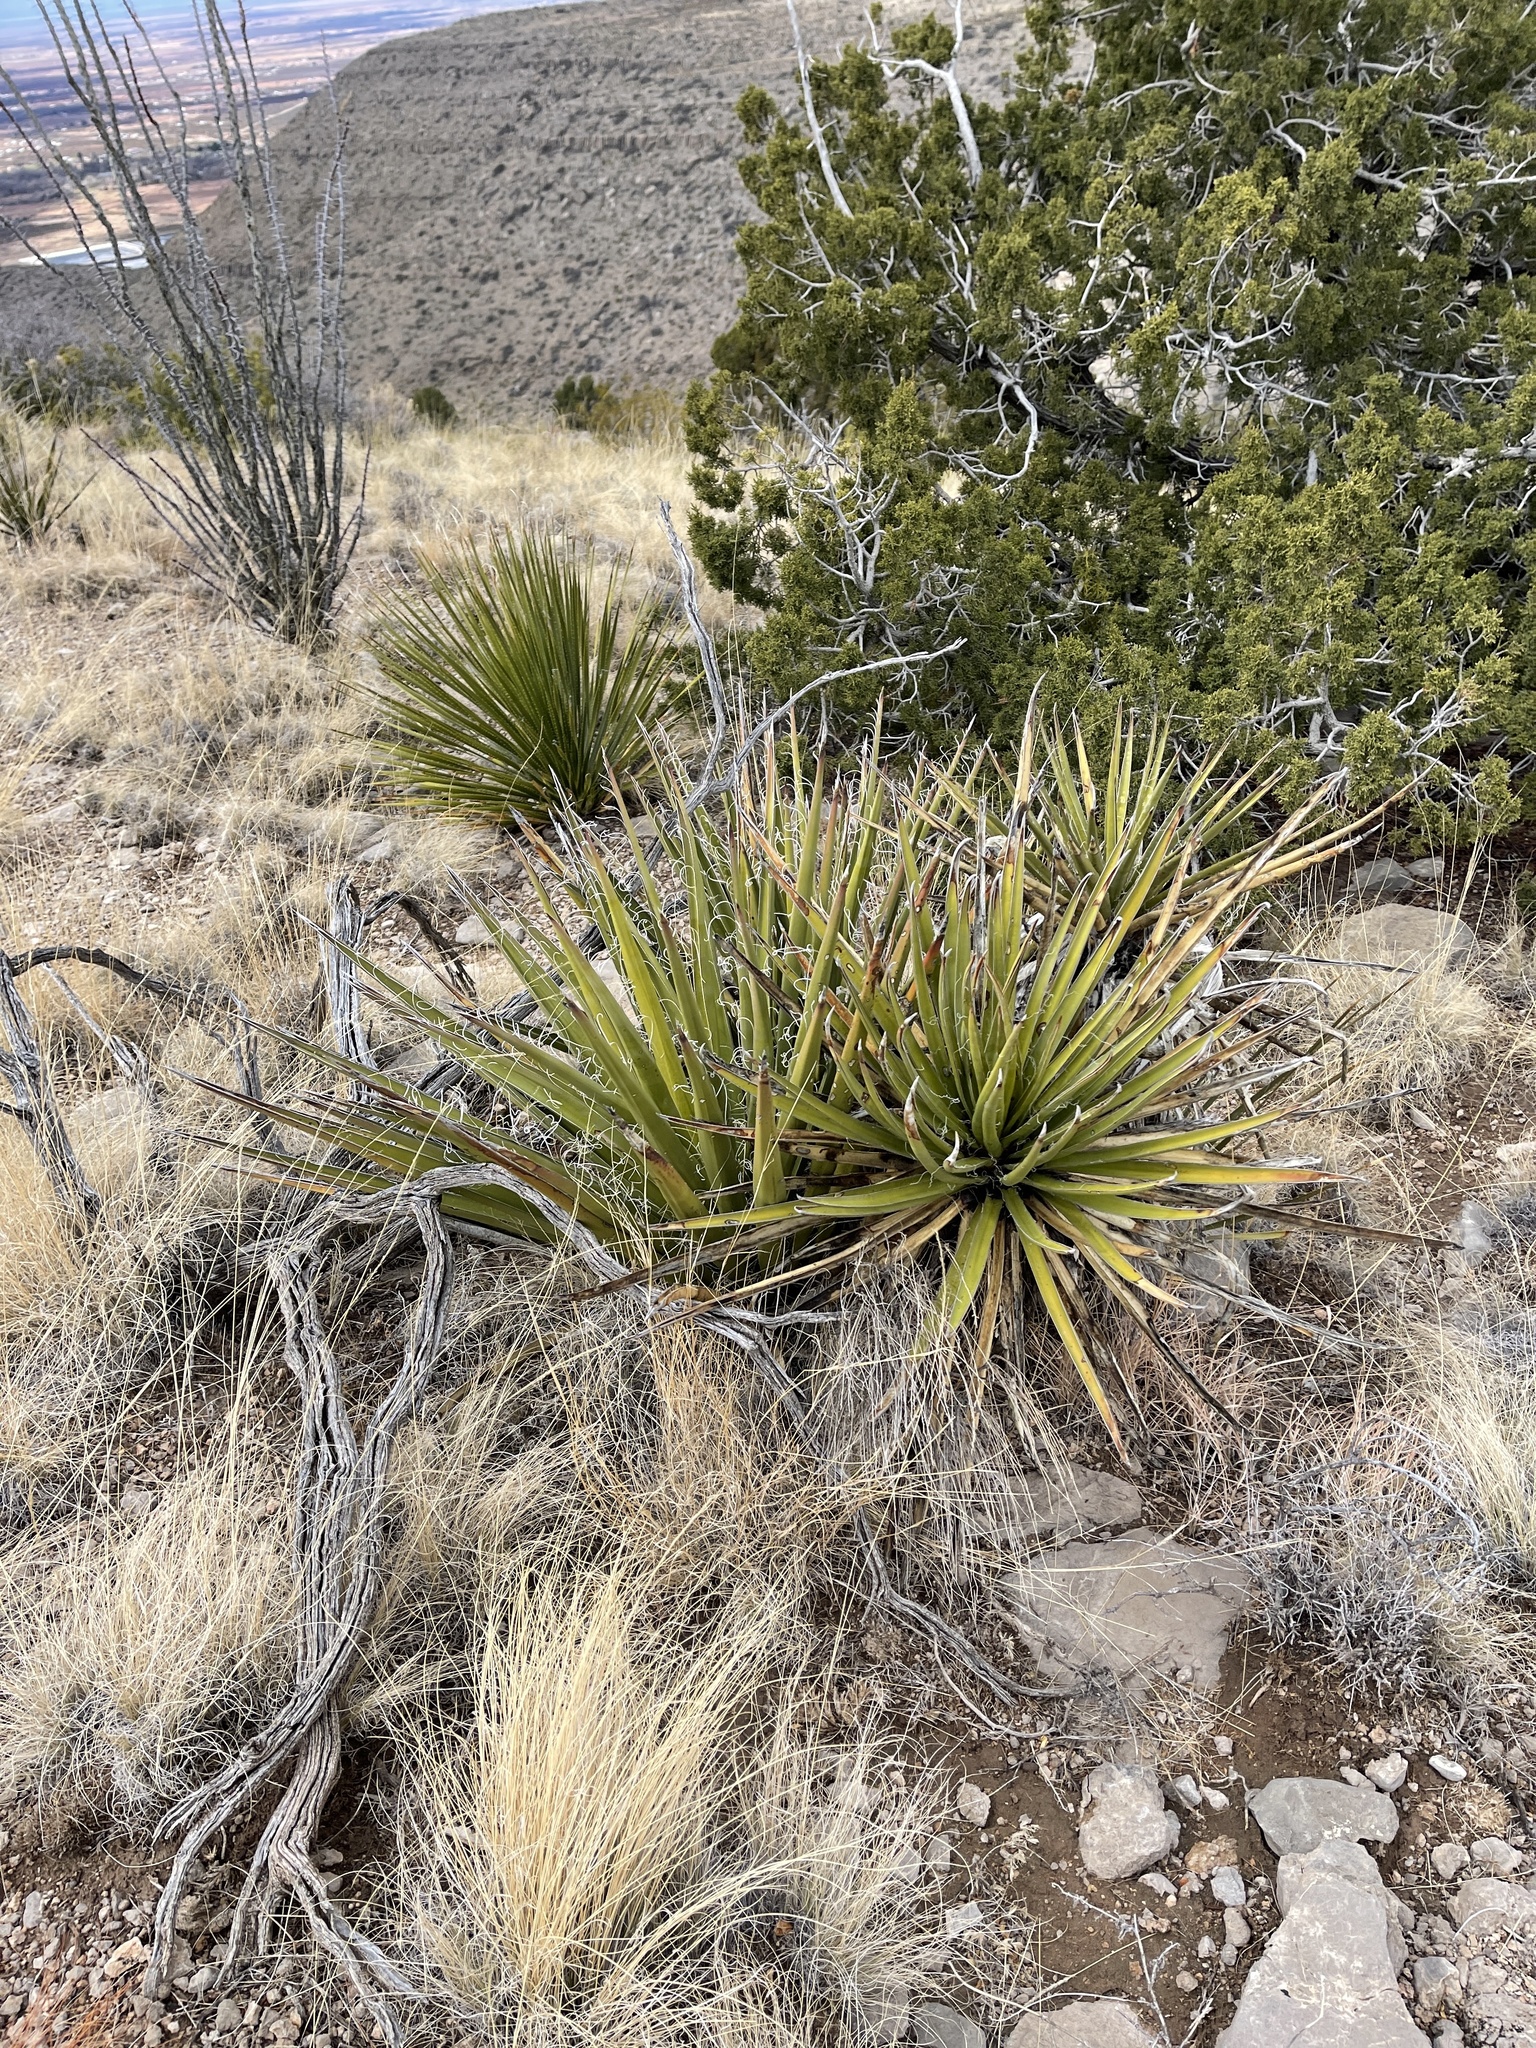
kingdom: Plantae
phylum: Tracheophyta
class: Liliopsida
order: Asparagales
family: Asparagaceae
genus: Yucca
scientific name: Yucca baccata
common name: Banana yucca
